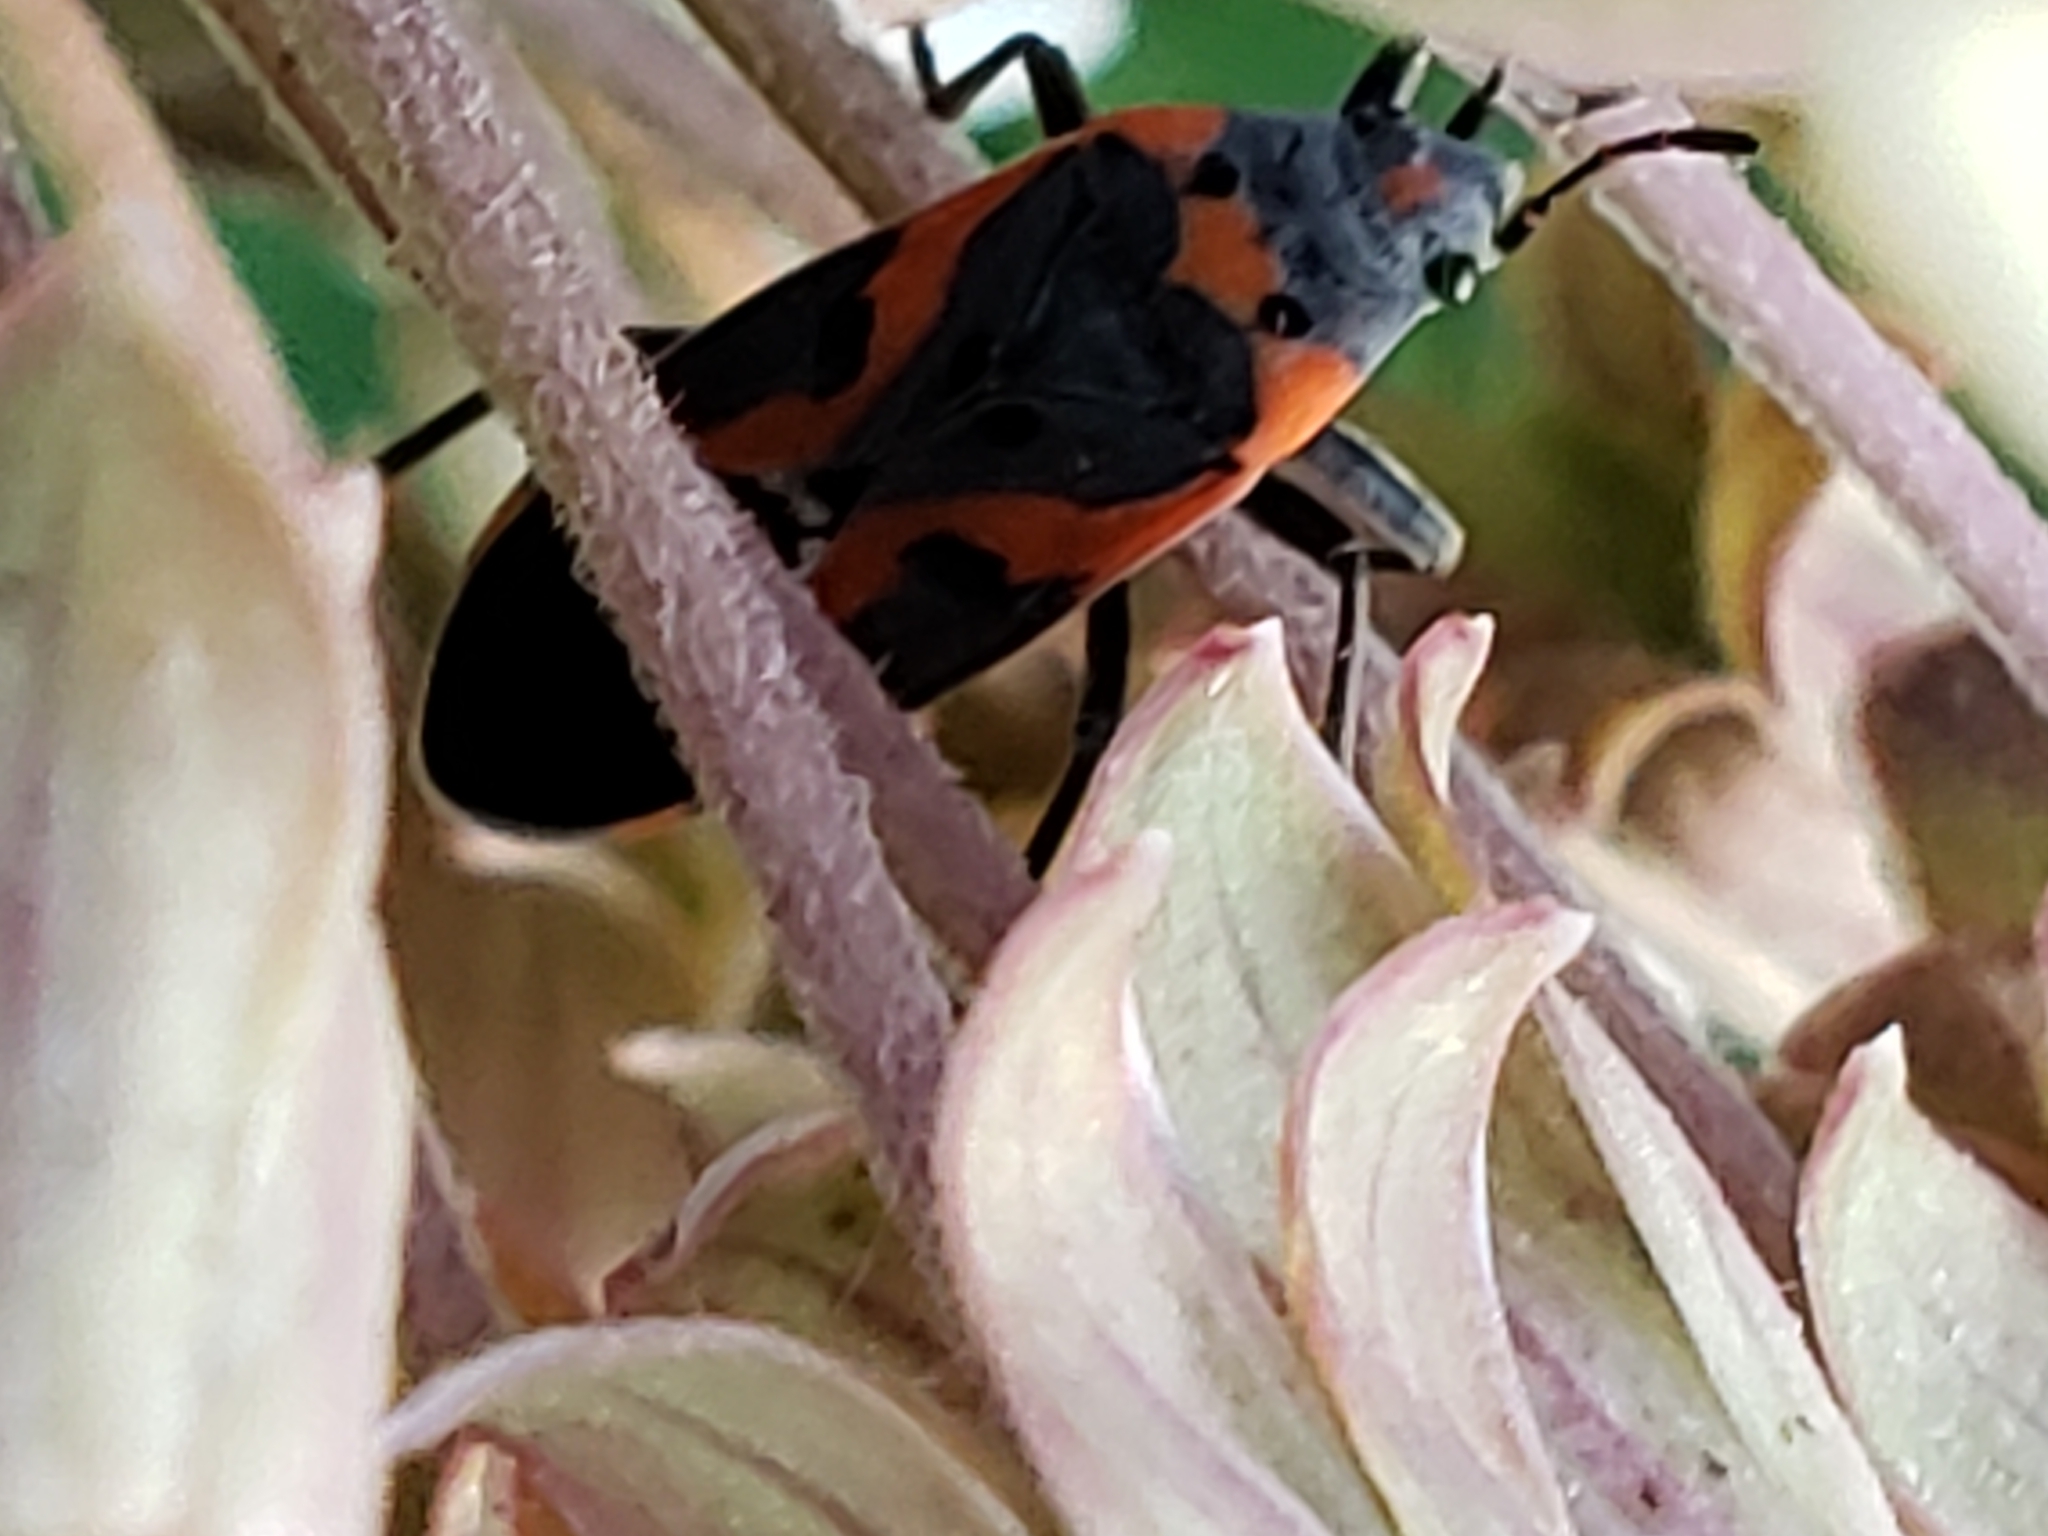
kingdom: Animalia
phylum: Arthropoda
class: Insecta
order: Hemiptera
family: Lygaeidae
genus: Lygaeus
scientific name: Lygaeus kalmii
